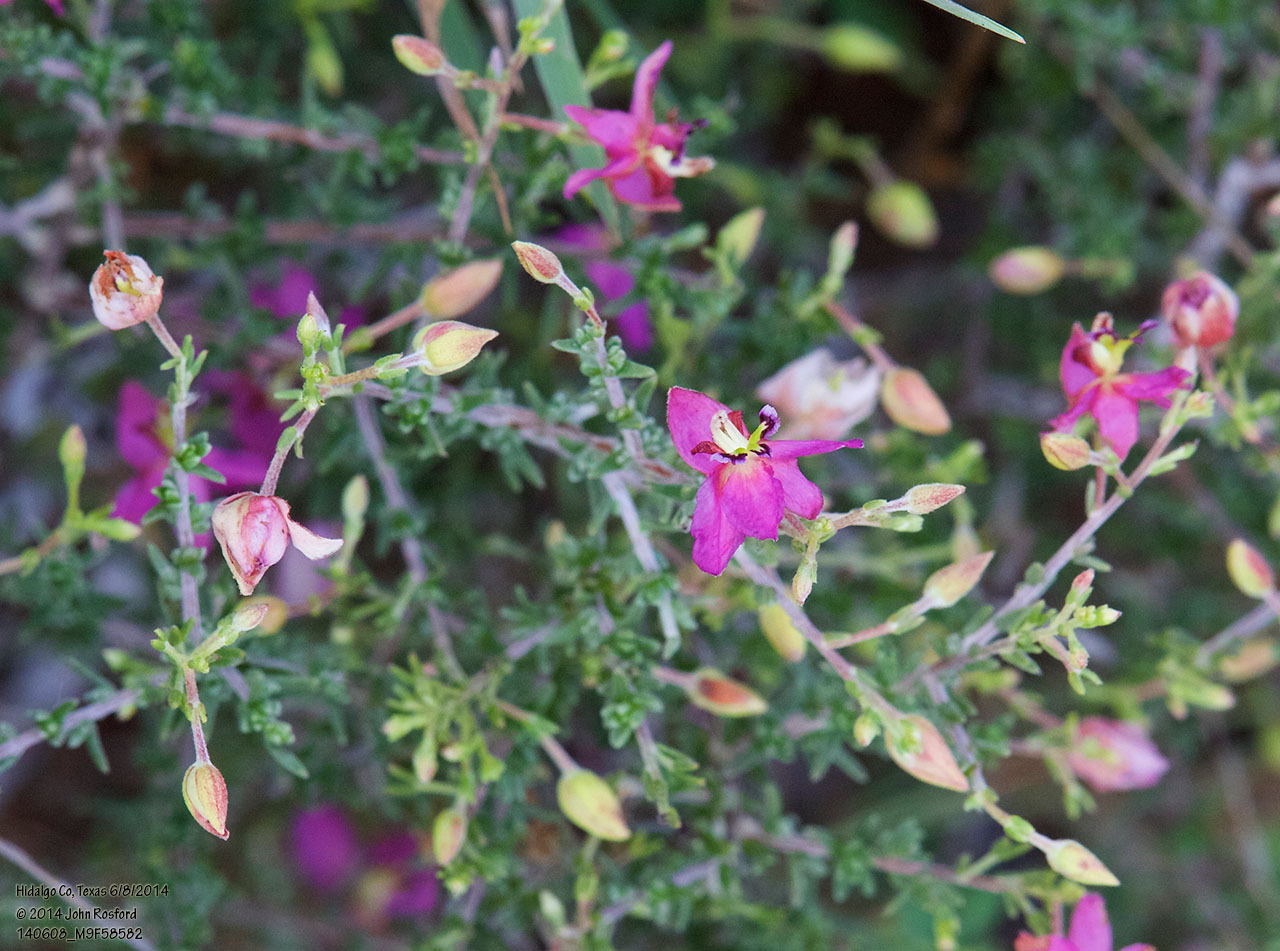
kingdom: Plantae
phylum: Tracheophyta
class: Magnoliopsida
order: Zygophyllales
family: Krameriaceae
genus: Krameria
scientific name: Krameria ramosissima
